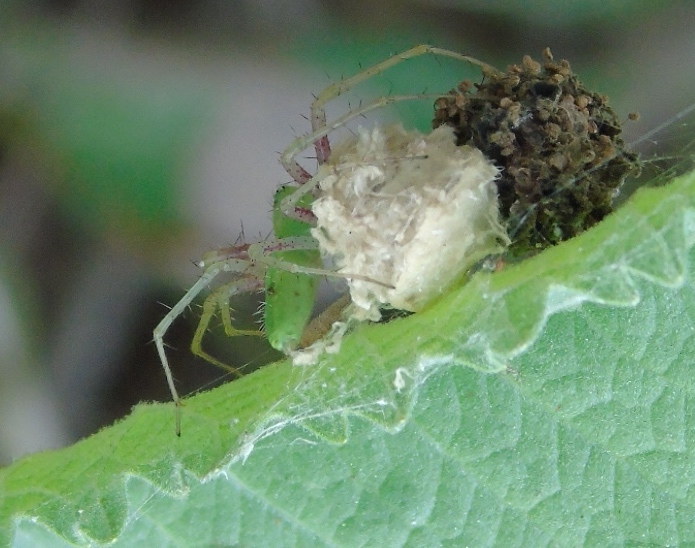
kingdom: Animalia
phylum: Arthropoda
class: Arachnida
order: Araneae
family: Oxyopidae
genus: Peucetia
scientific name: Peucetia longipalpis
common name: Lynx spiders
